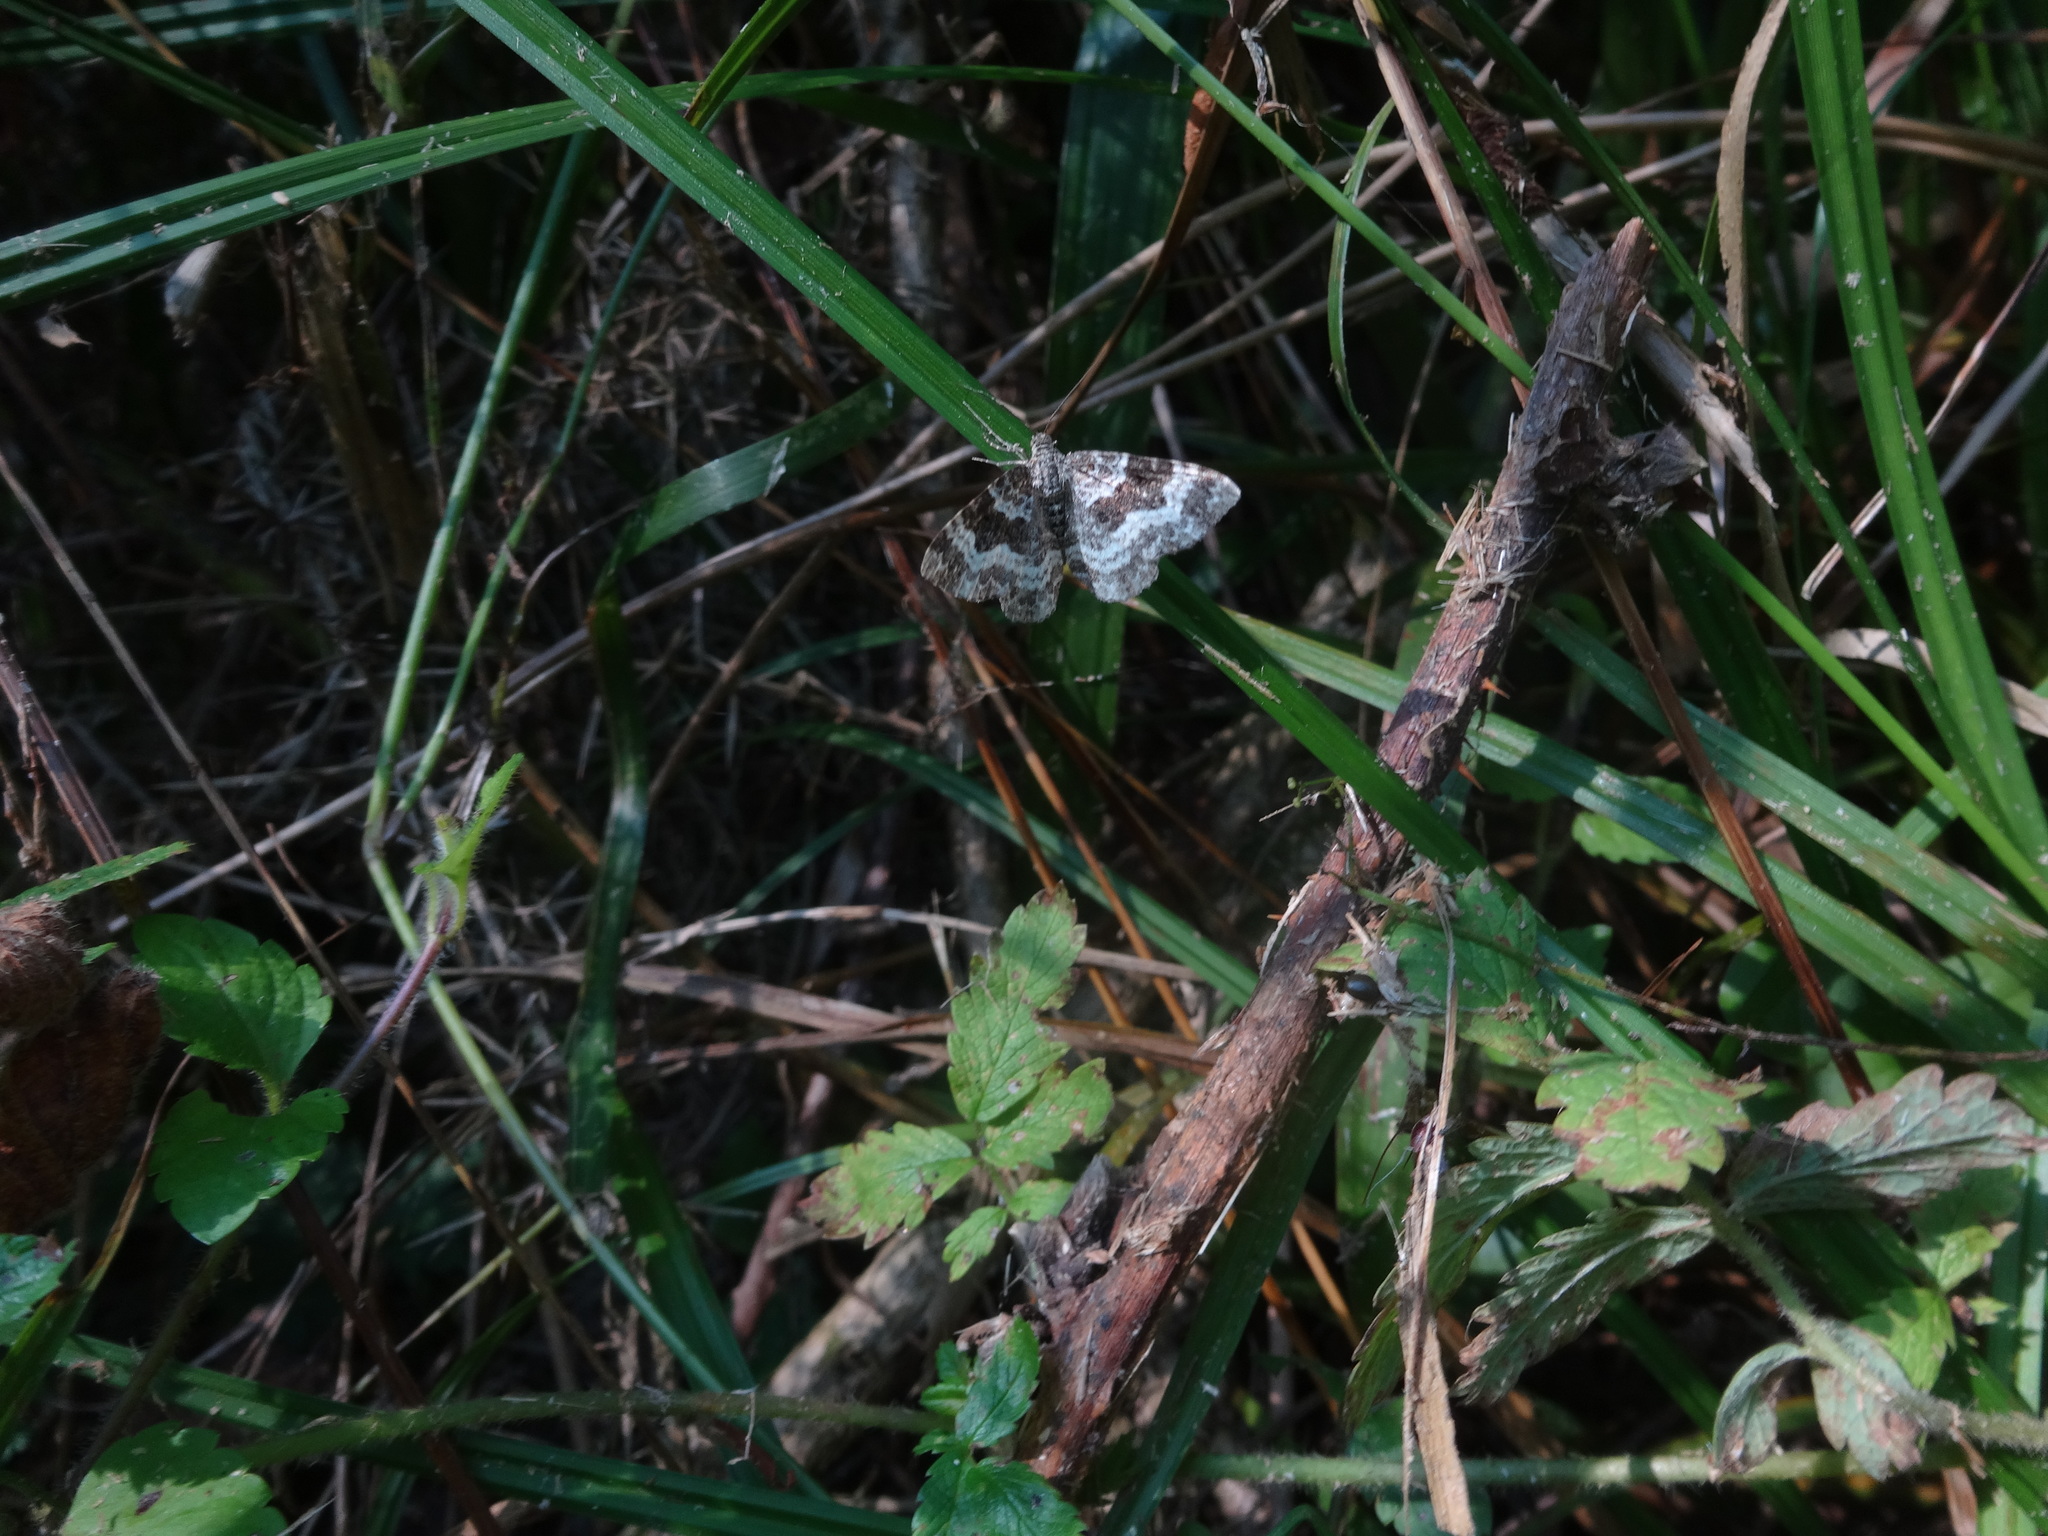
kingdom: Animalia
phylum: Arthropoda
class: Insecta
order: Lepidoptera
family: Geometridae
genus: Epirrhoe
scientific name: Epirrhoe alternata
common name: Common carpet
